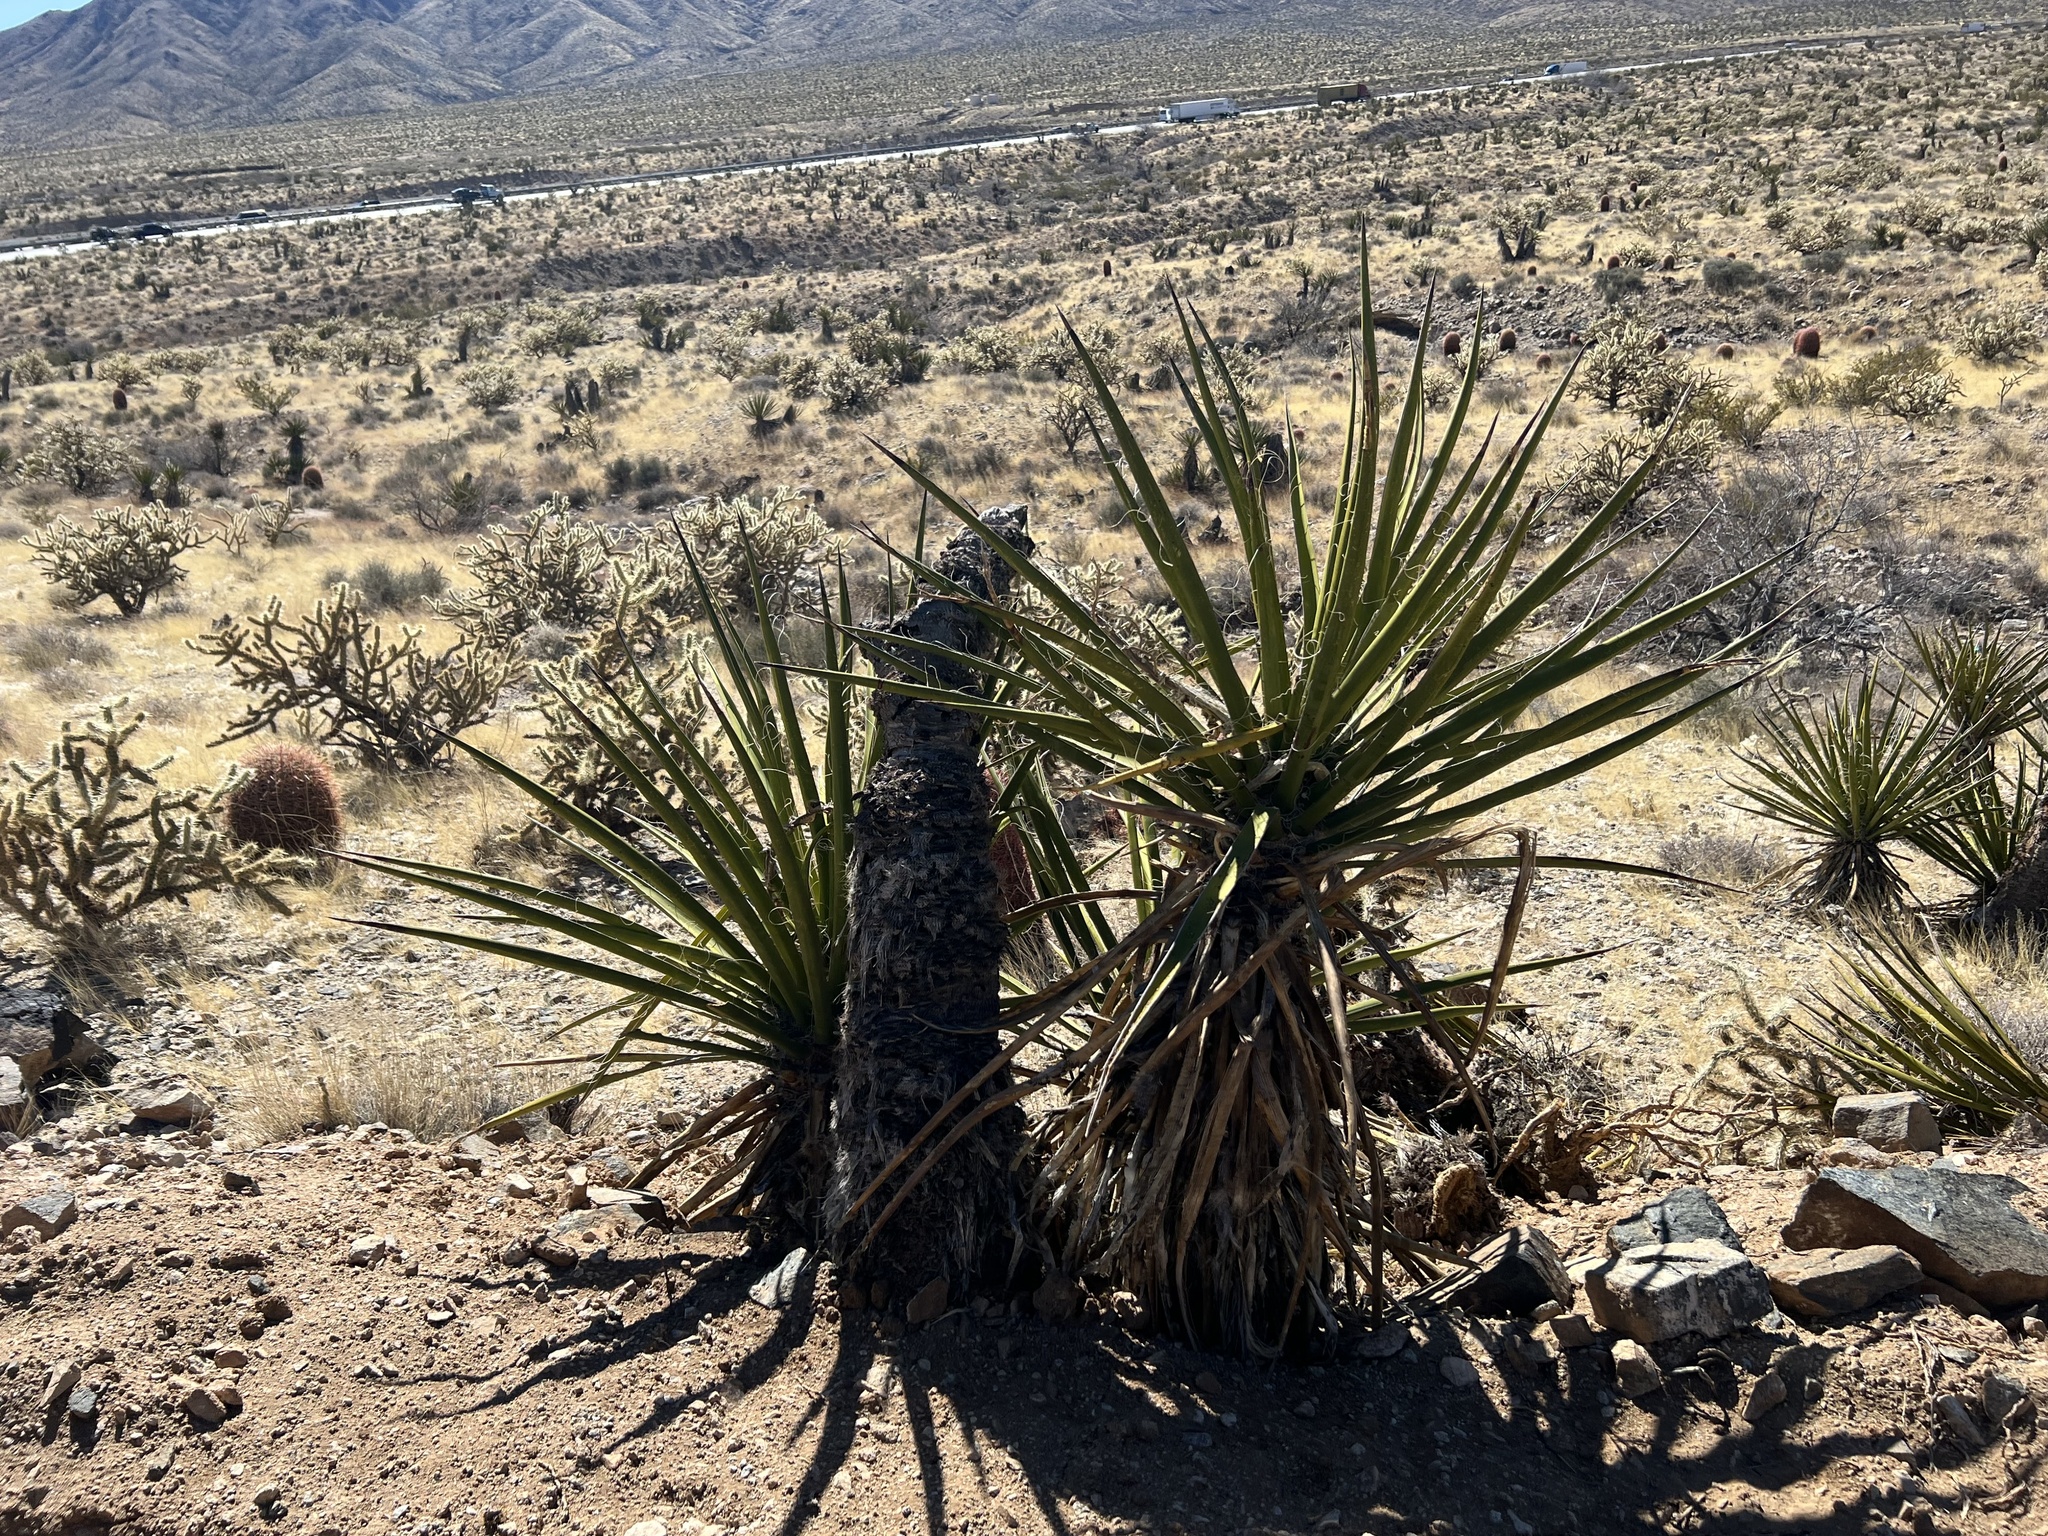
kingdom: Plantae
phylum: Tracheophyta
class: Liliopsida
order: Asparagales
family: Asparagaceae
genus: Yucca
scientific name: Yucca schidigera
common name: Mojave yucca
